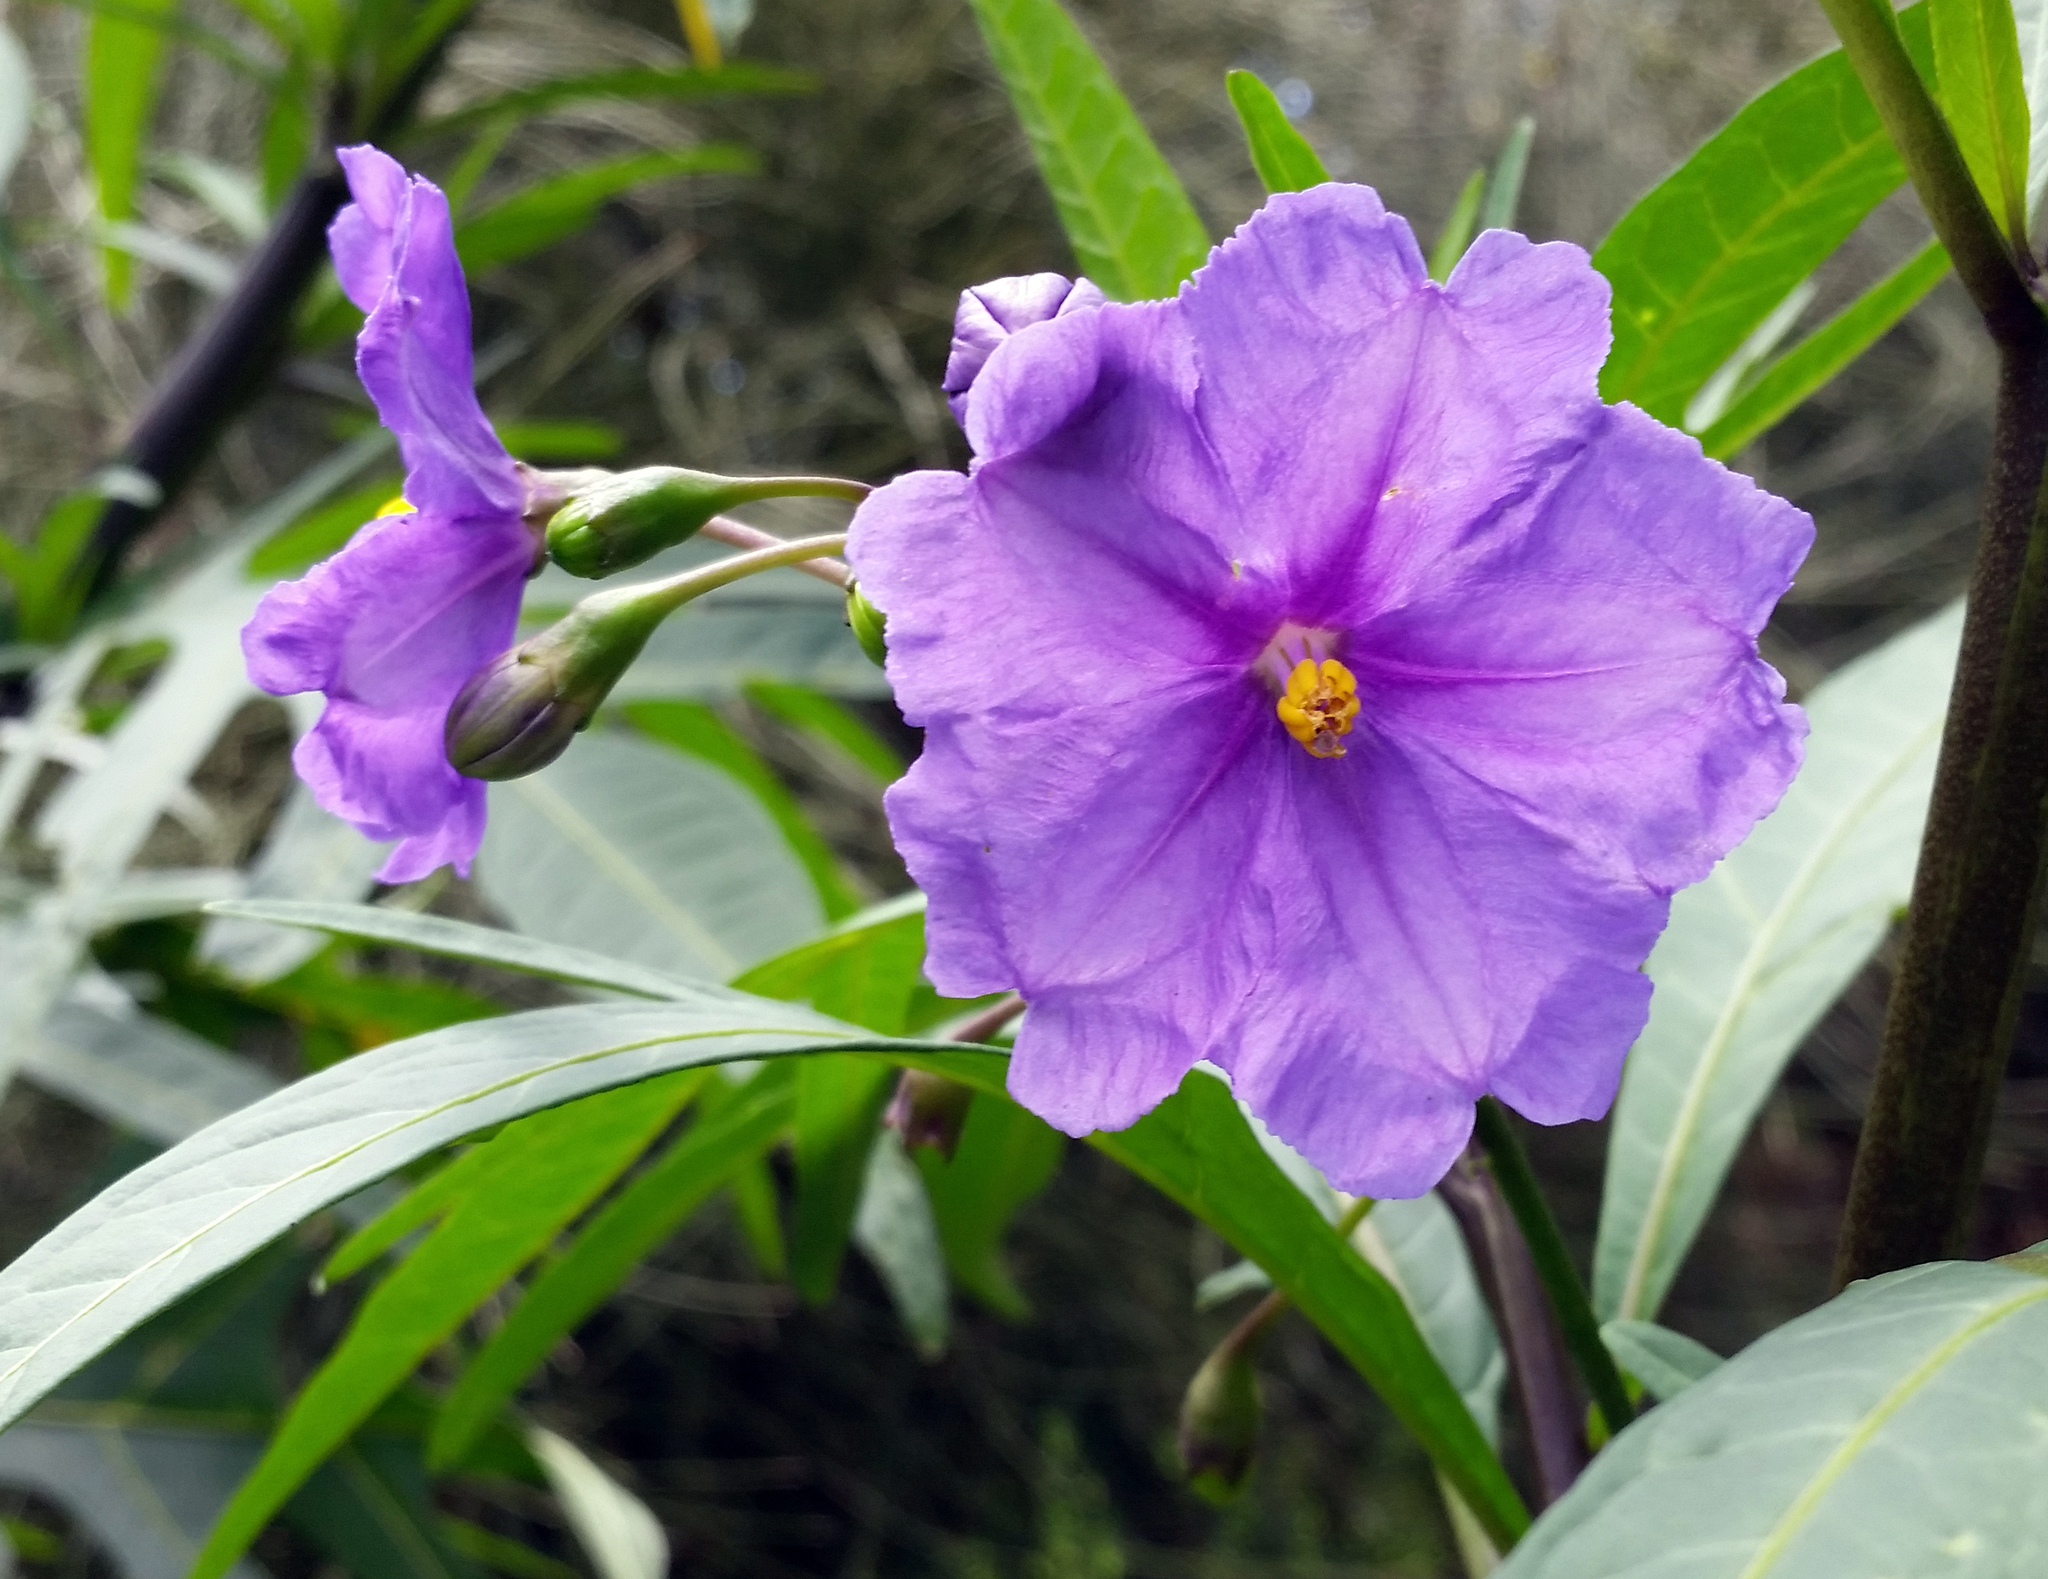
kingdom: Plantae
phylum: Tracheophyta
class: Magnoliopsida
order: Solanales
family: Solanaceae
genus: Solanum
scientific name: Solanum laciniatum
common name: Kangaroo-apple
